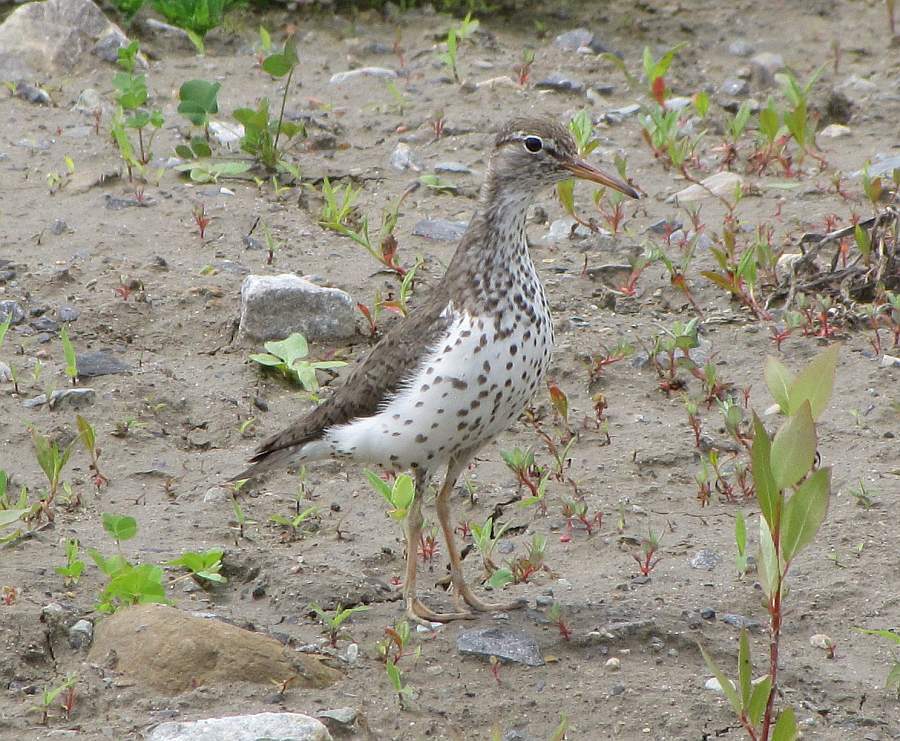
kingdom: Animalia
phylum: Chordata
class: Aves
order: Charadriiformes
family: Scolopacidae
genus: Actitis
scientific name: Actitis macularius
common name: Spotted sandpiper
